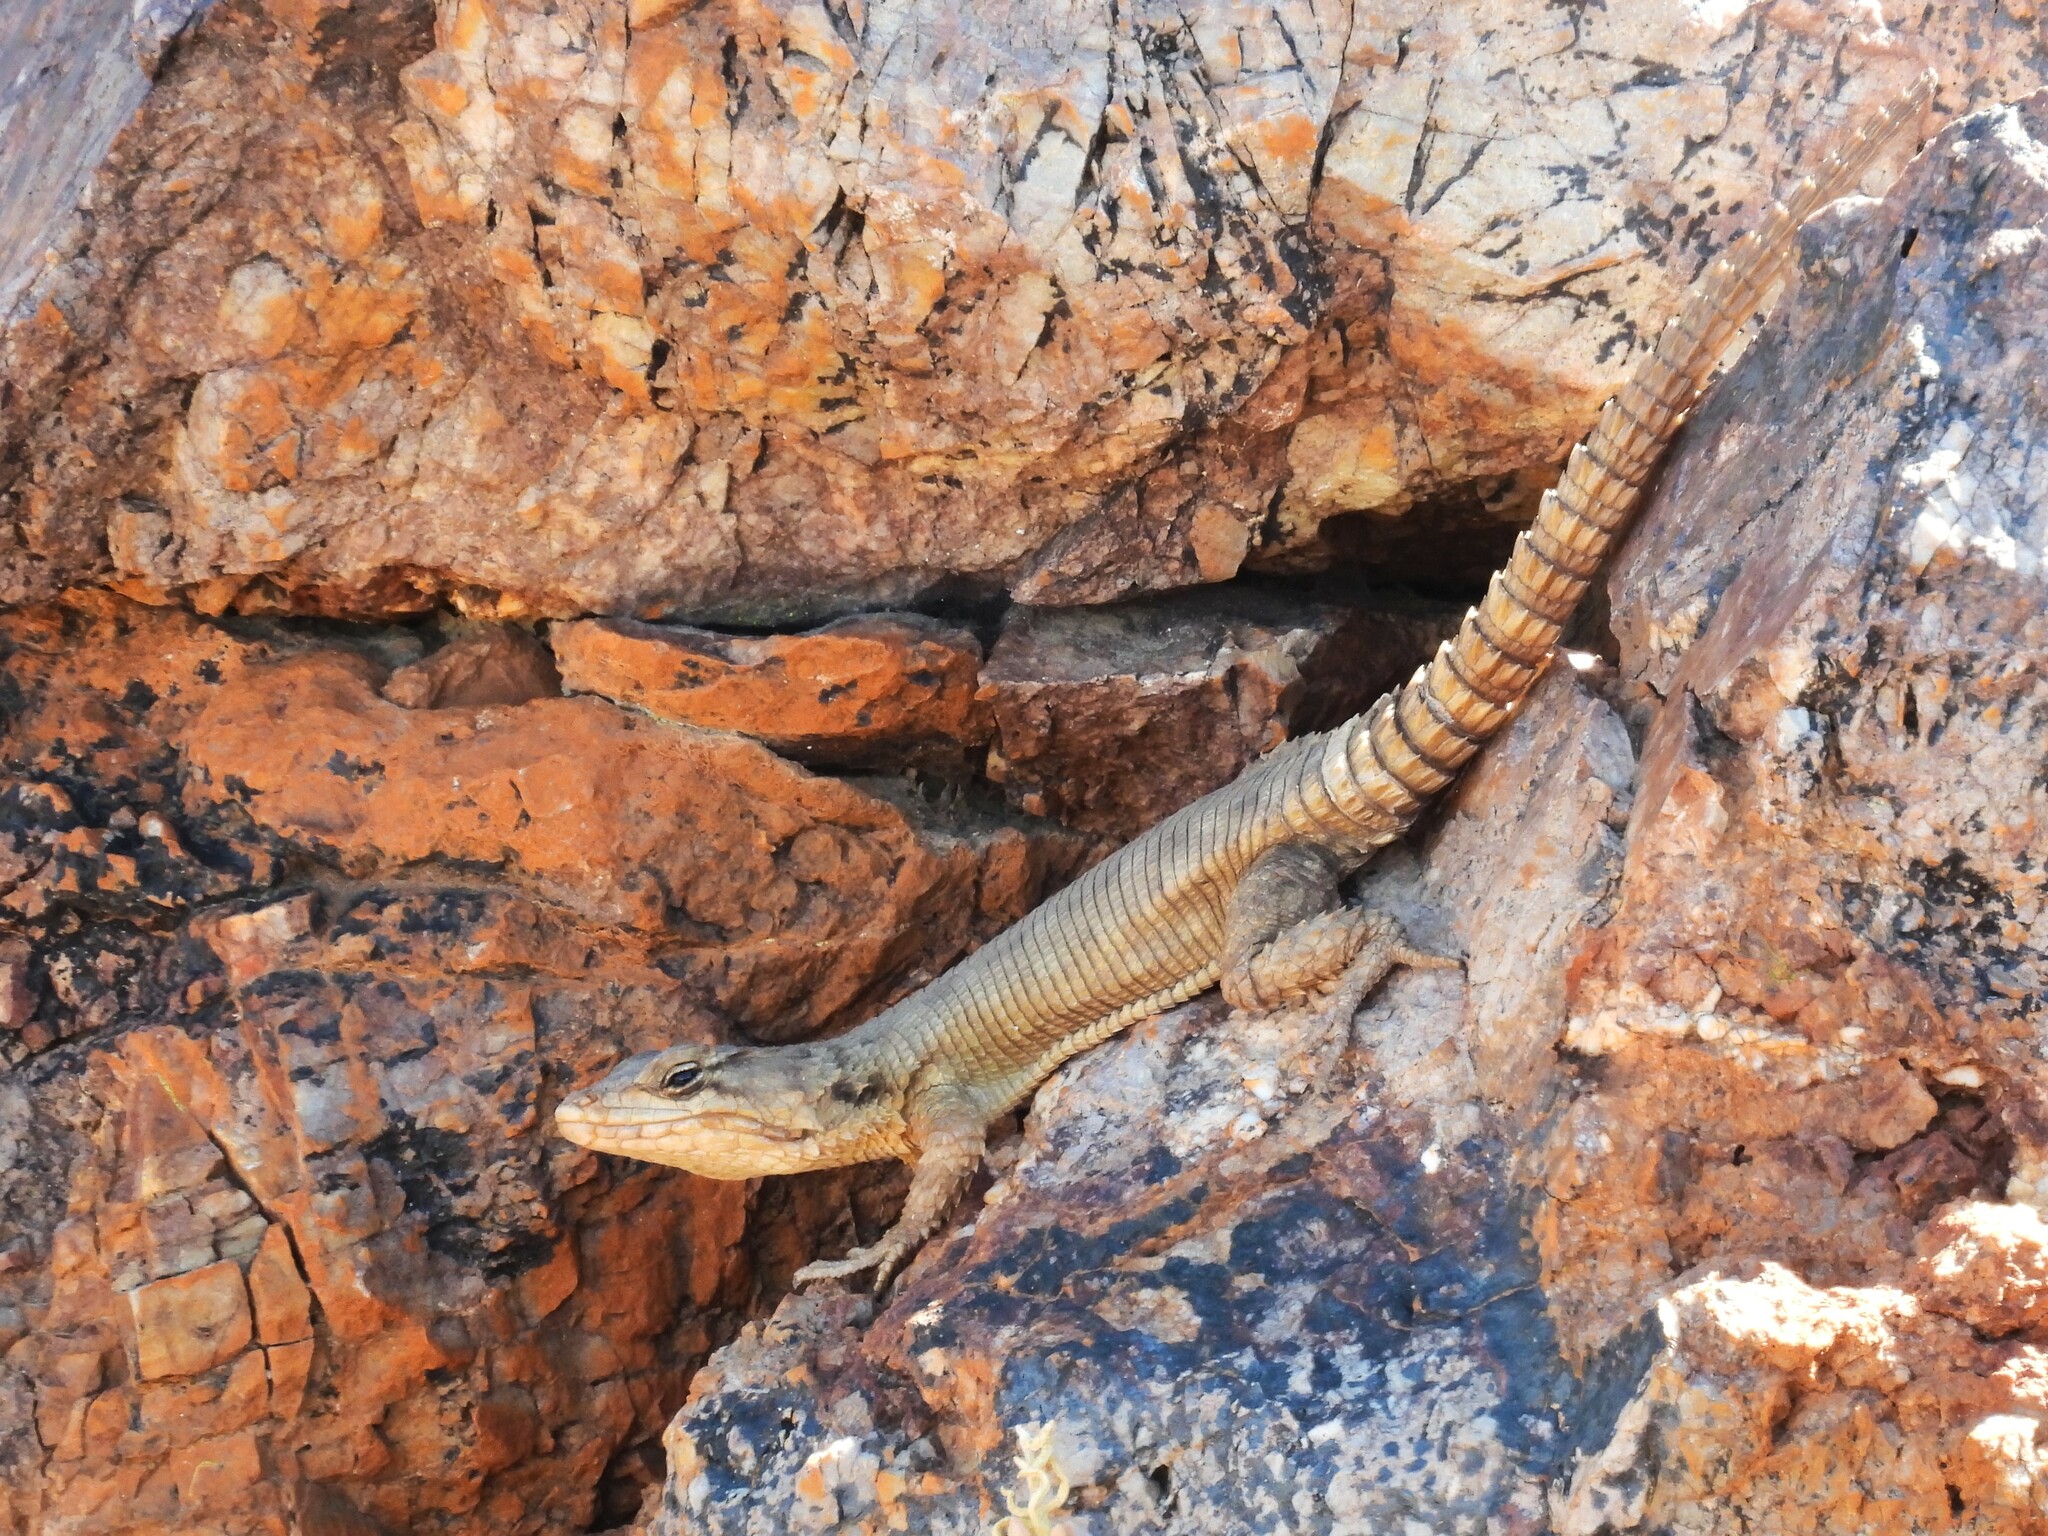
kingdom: Animalia
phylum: Chordata
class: Squamata
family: Cordylidae
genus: Karusasaurus
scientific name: Karusasaurus polyzonus
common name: Karoo girdled lizard
